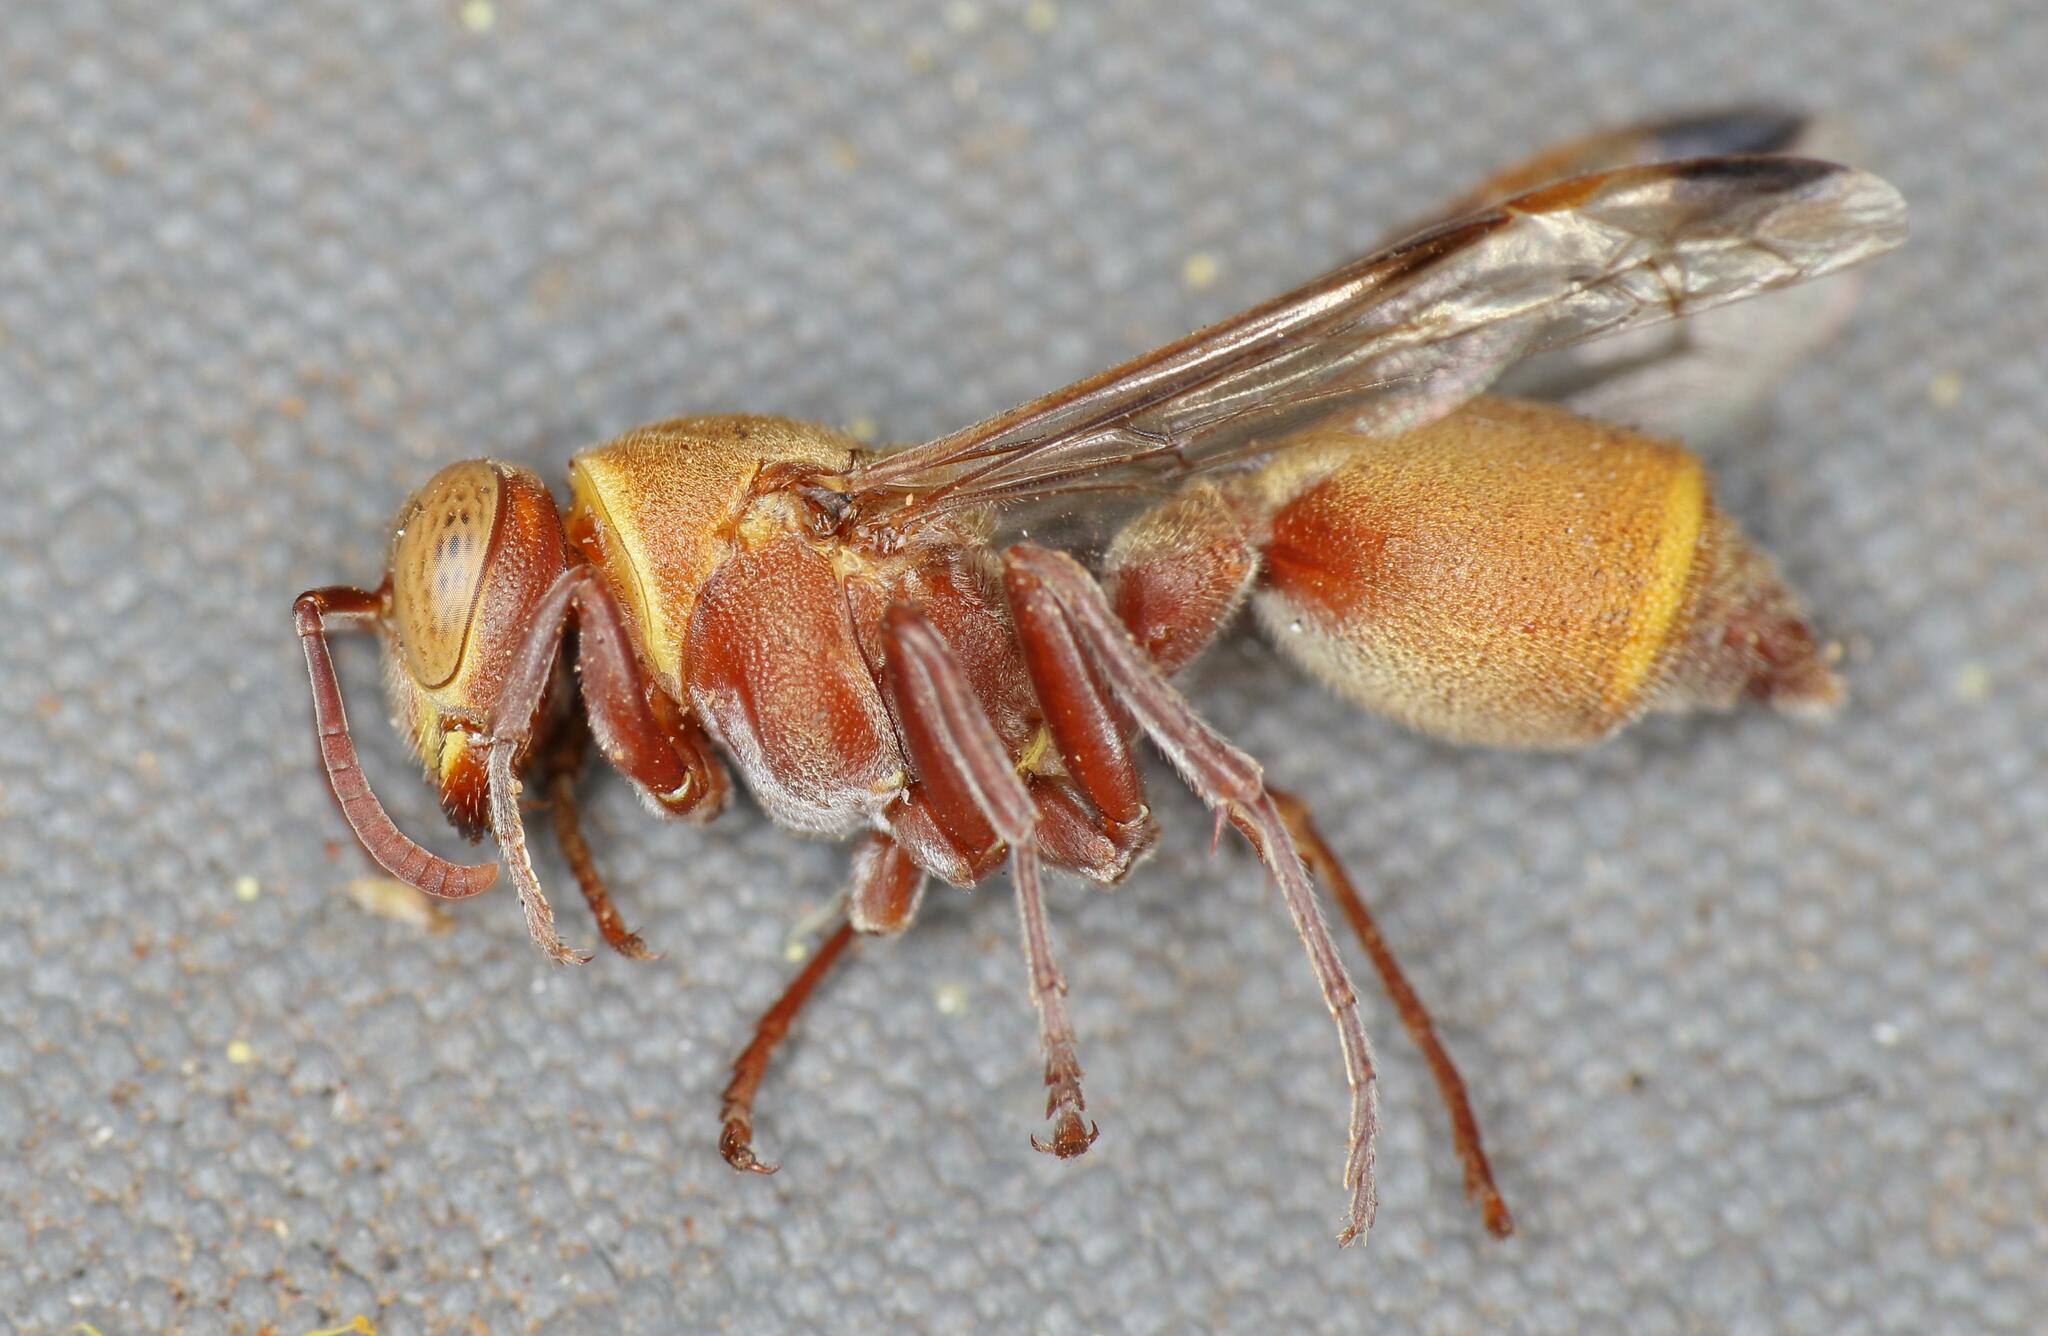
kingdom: Animalia
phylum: Arthropoda
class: Insecta
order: Hymenoptera
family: Vespidae
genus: Ropalidia
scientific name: Ropalidia distigma
